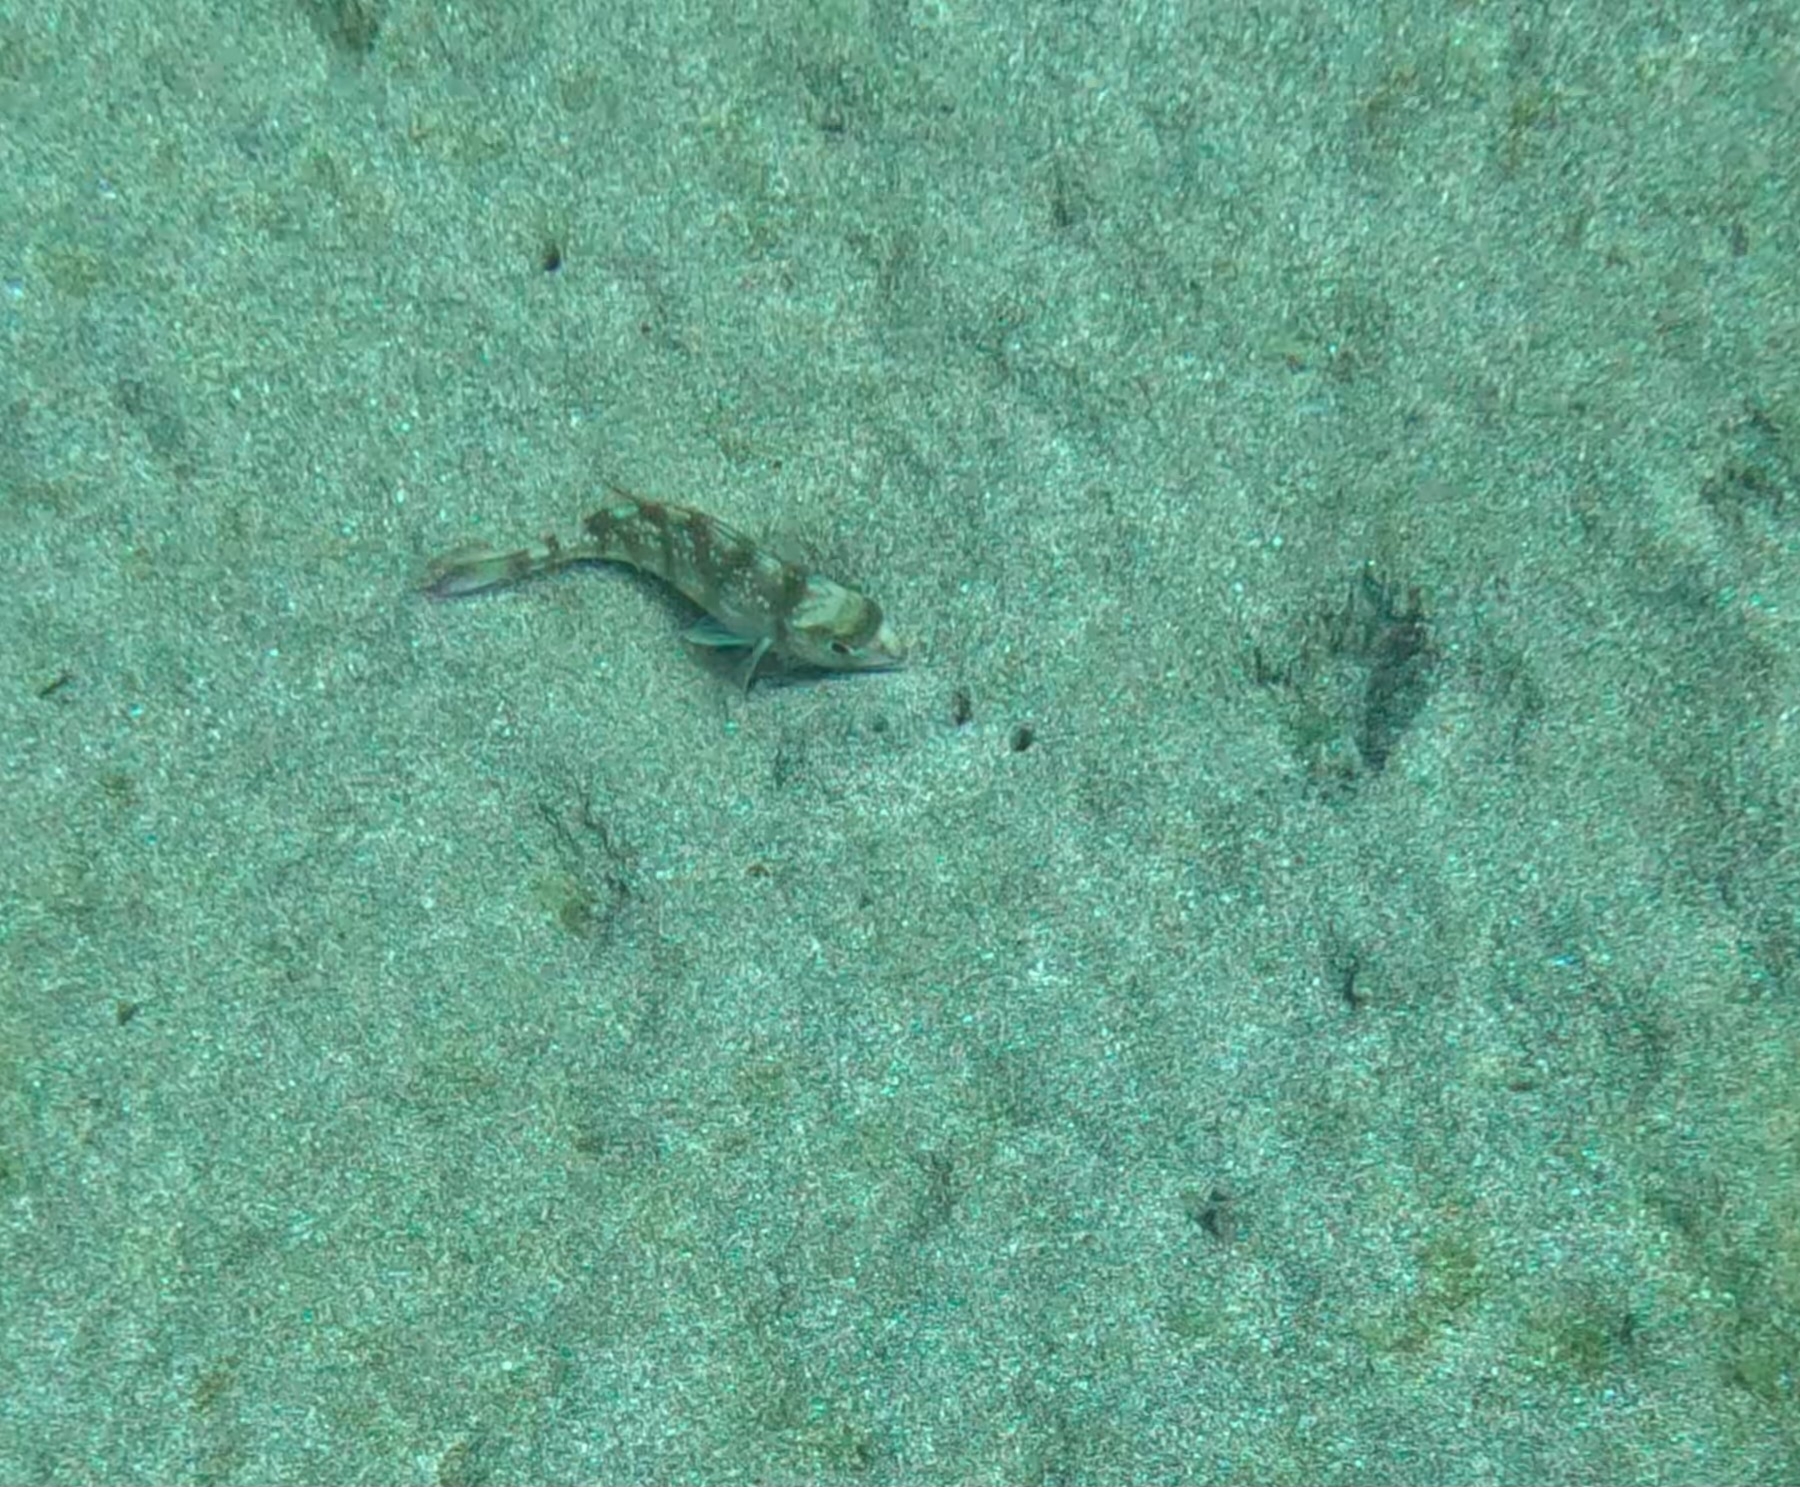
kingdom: Animalia
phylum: Chordata
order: Perciformes
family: Sparidae
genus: Pagellus
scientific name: Pagellus erythrinus
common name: Pandora
